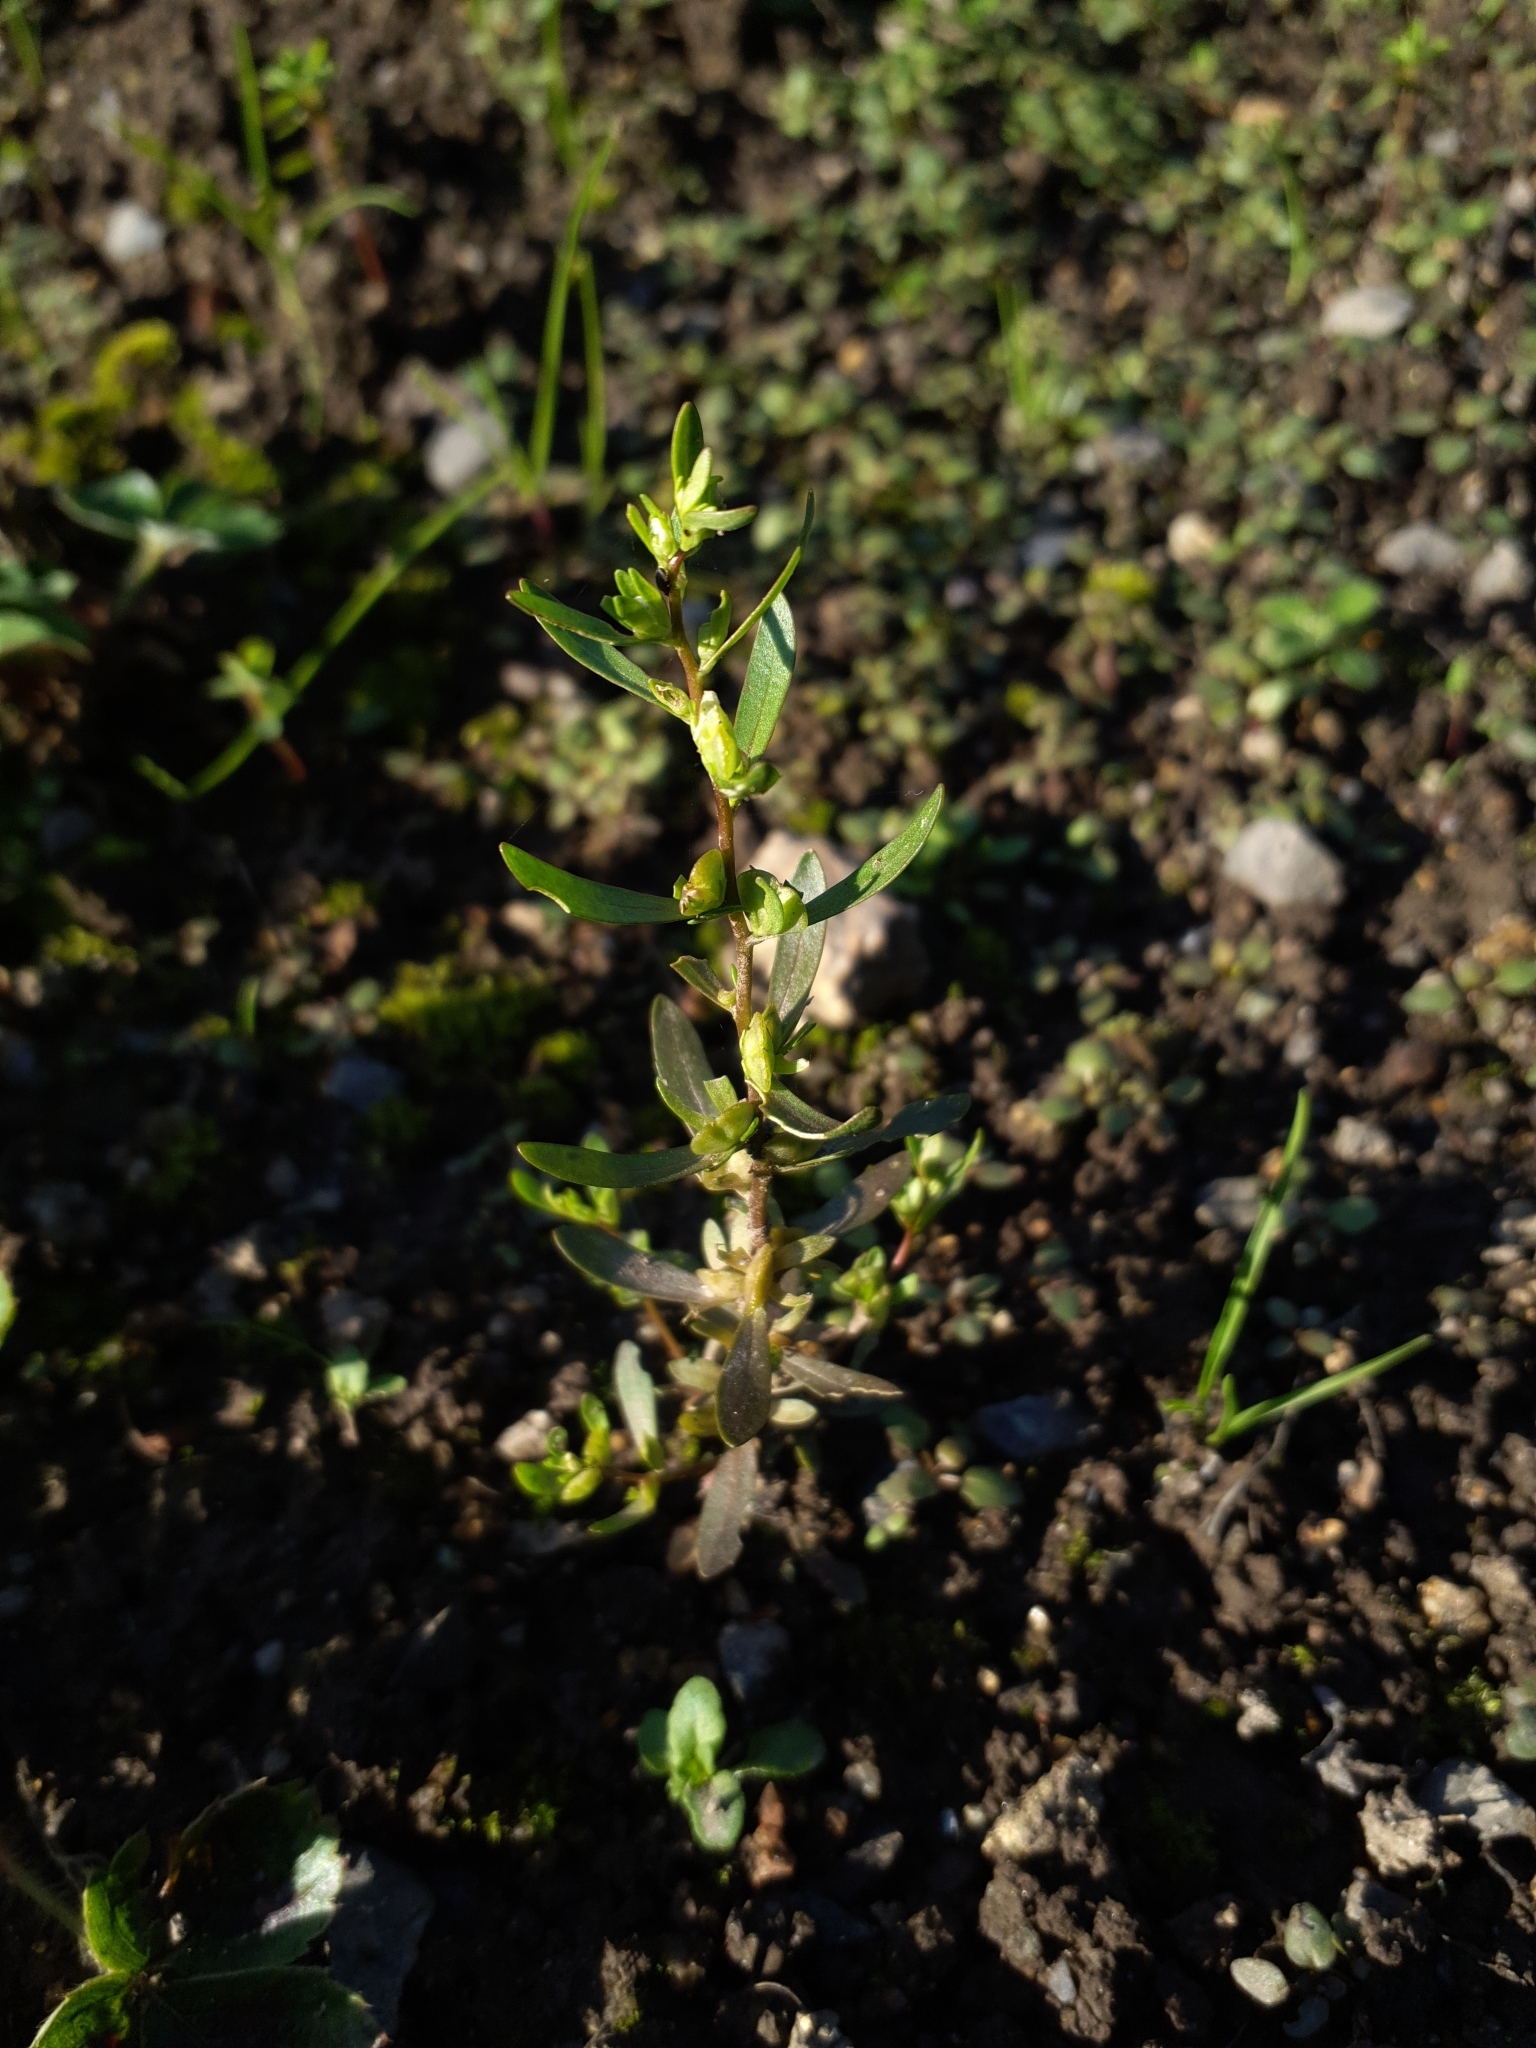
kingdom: Plantae
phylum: Tracheophyta
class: Magnoliopsida
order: Lamiales
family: Plantaginaceae
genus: Veronica
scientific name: Veronica peregrina
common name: Neckweed
